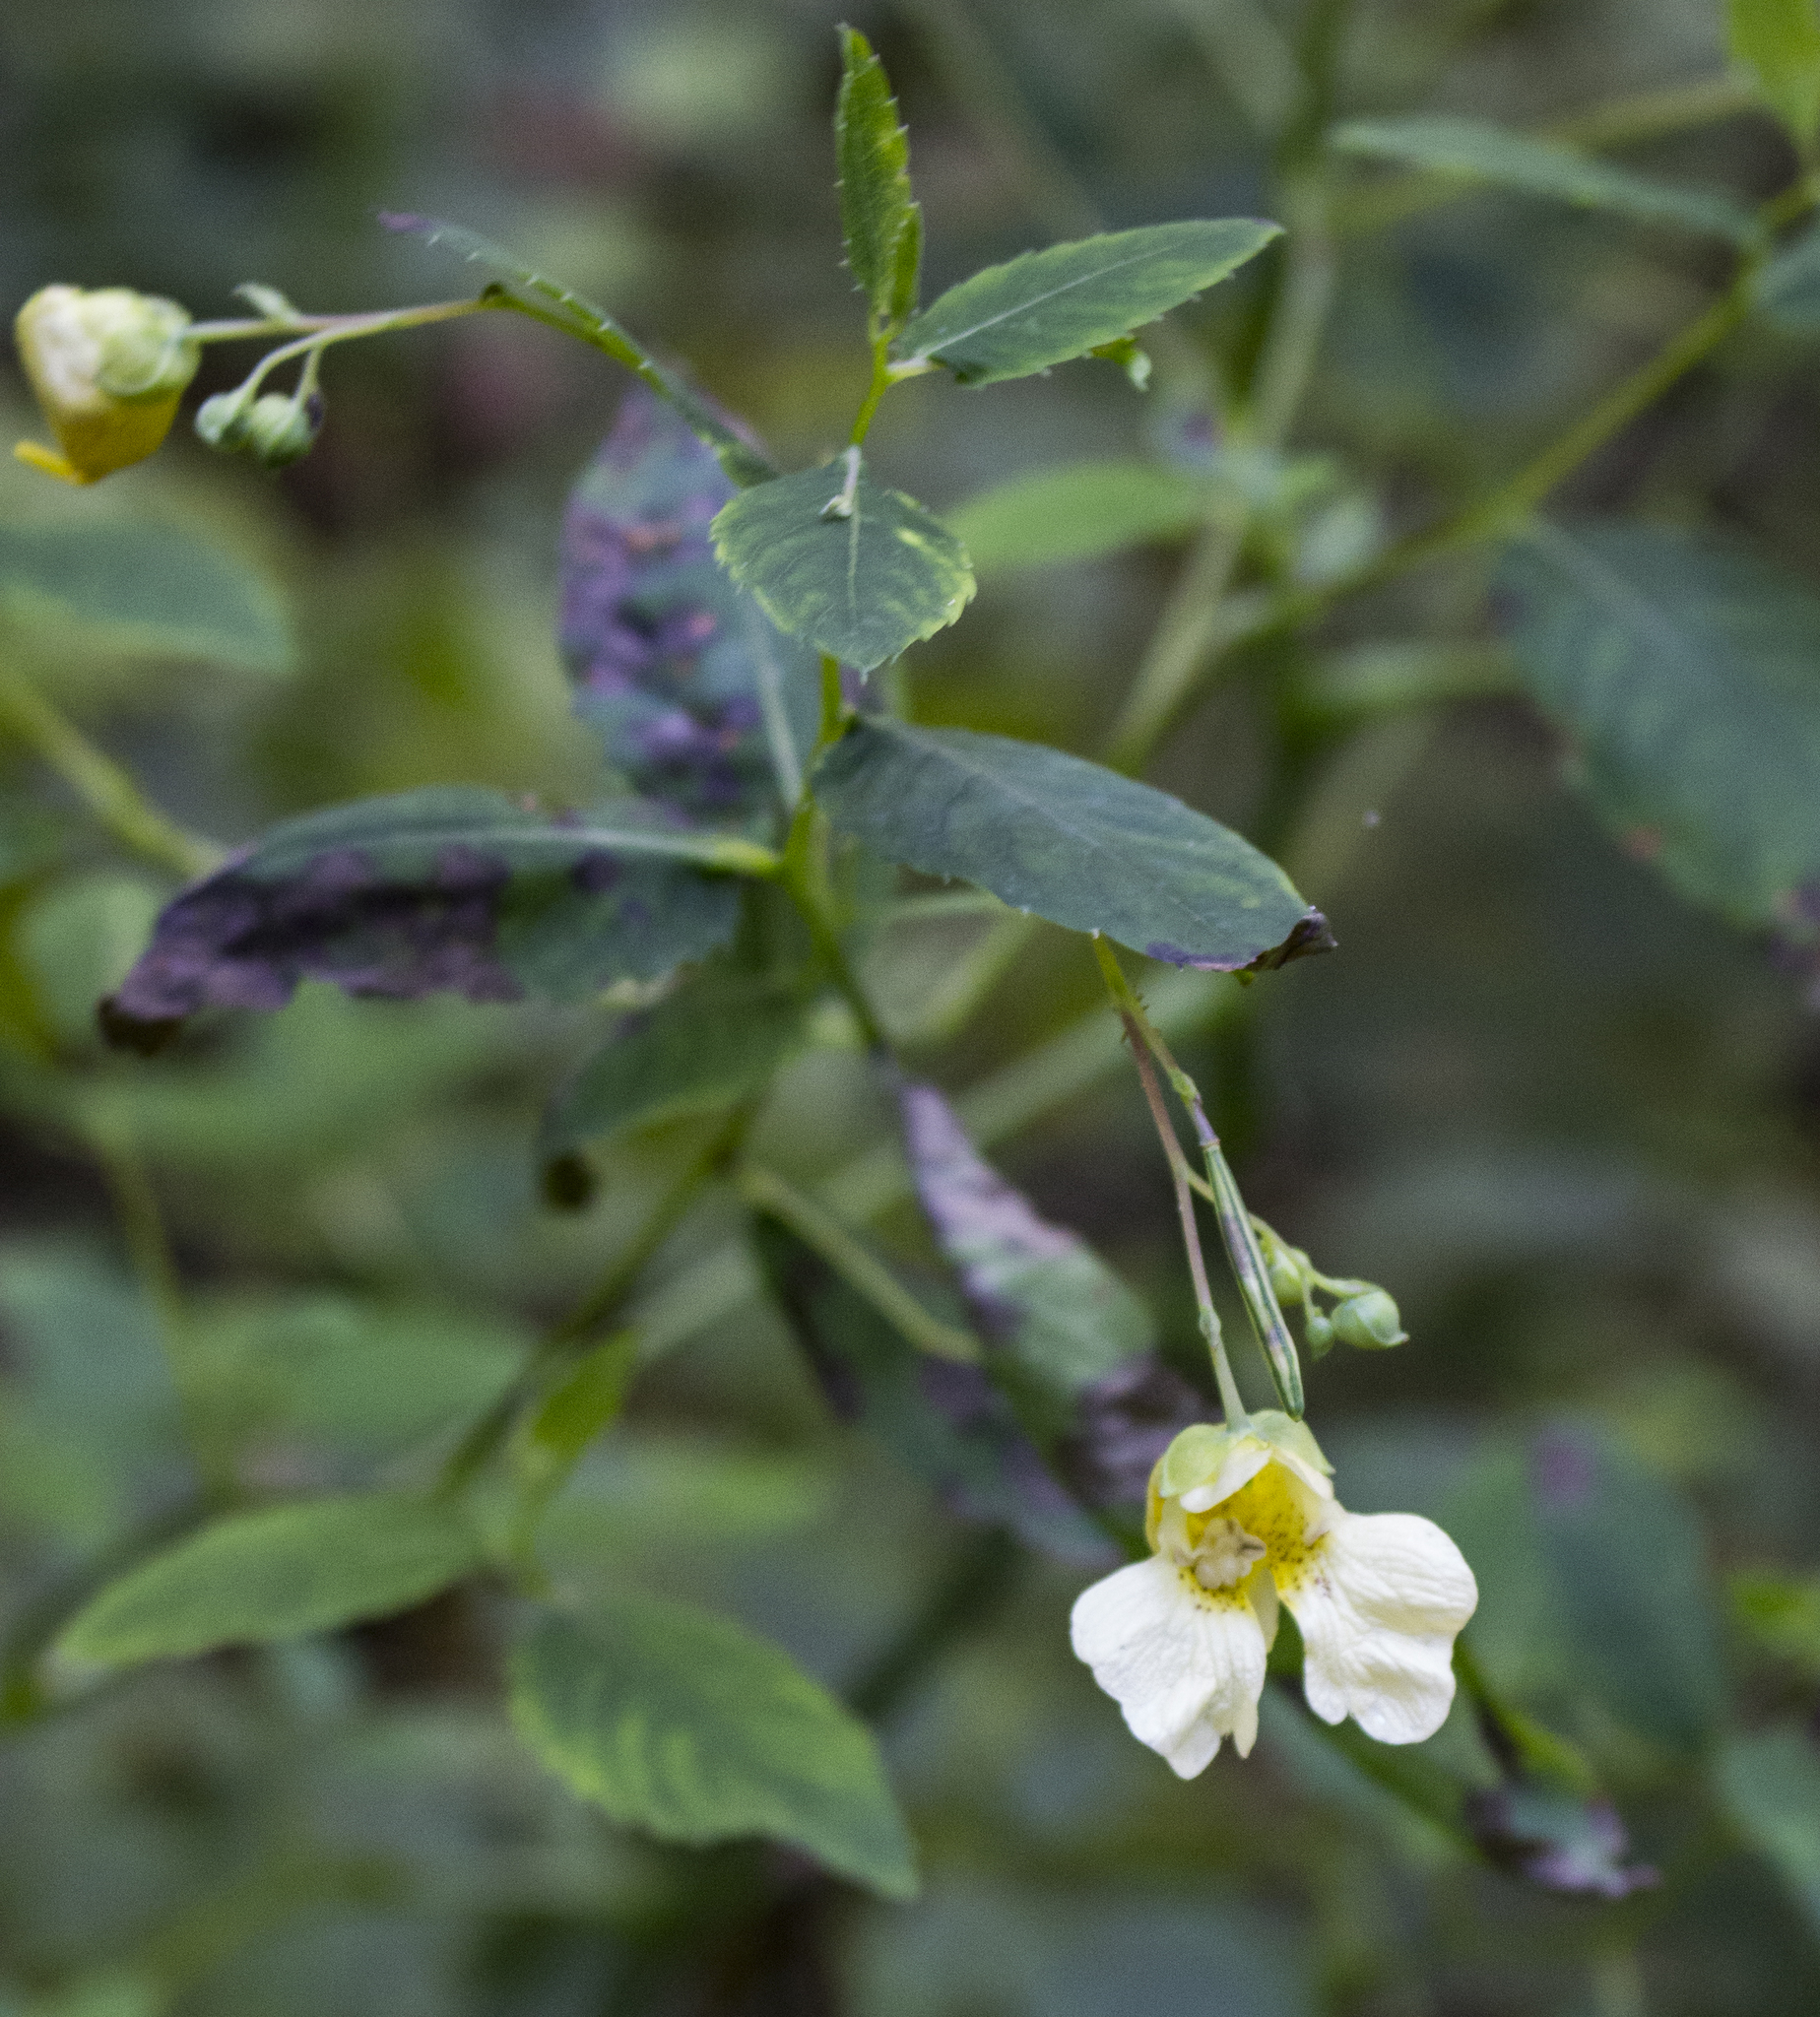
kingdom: Plantae
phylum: Tracheophyta
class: Magnoliopsida
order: Ericales
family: Balsaminaceae
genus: Impatiens
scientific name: Impatiens pallida
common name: Pale snapweed
